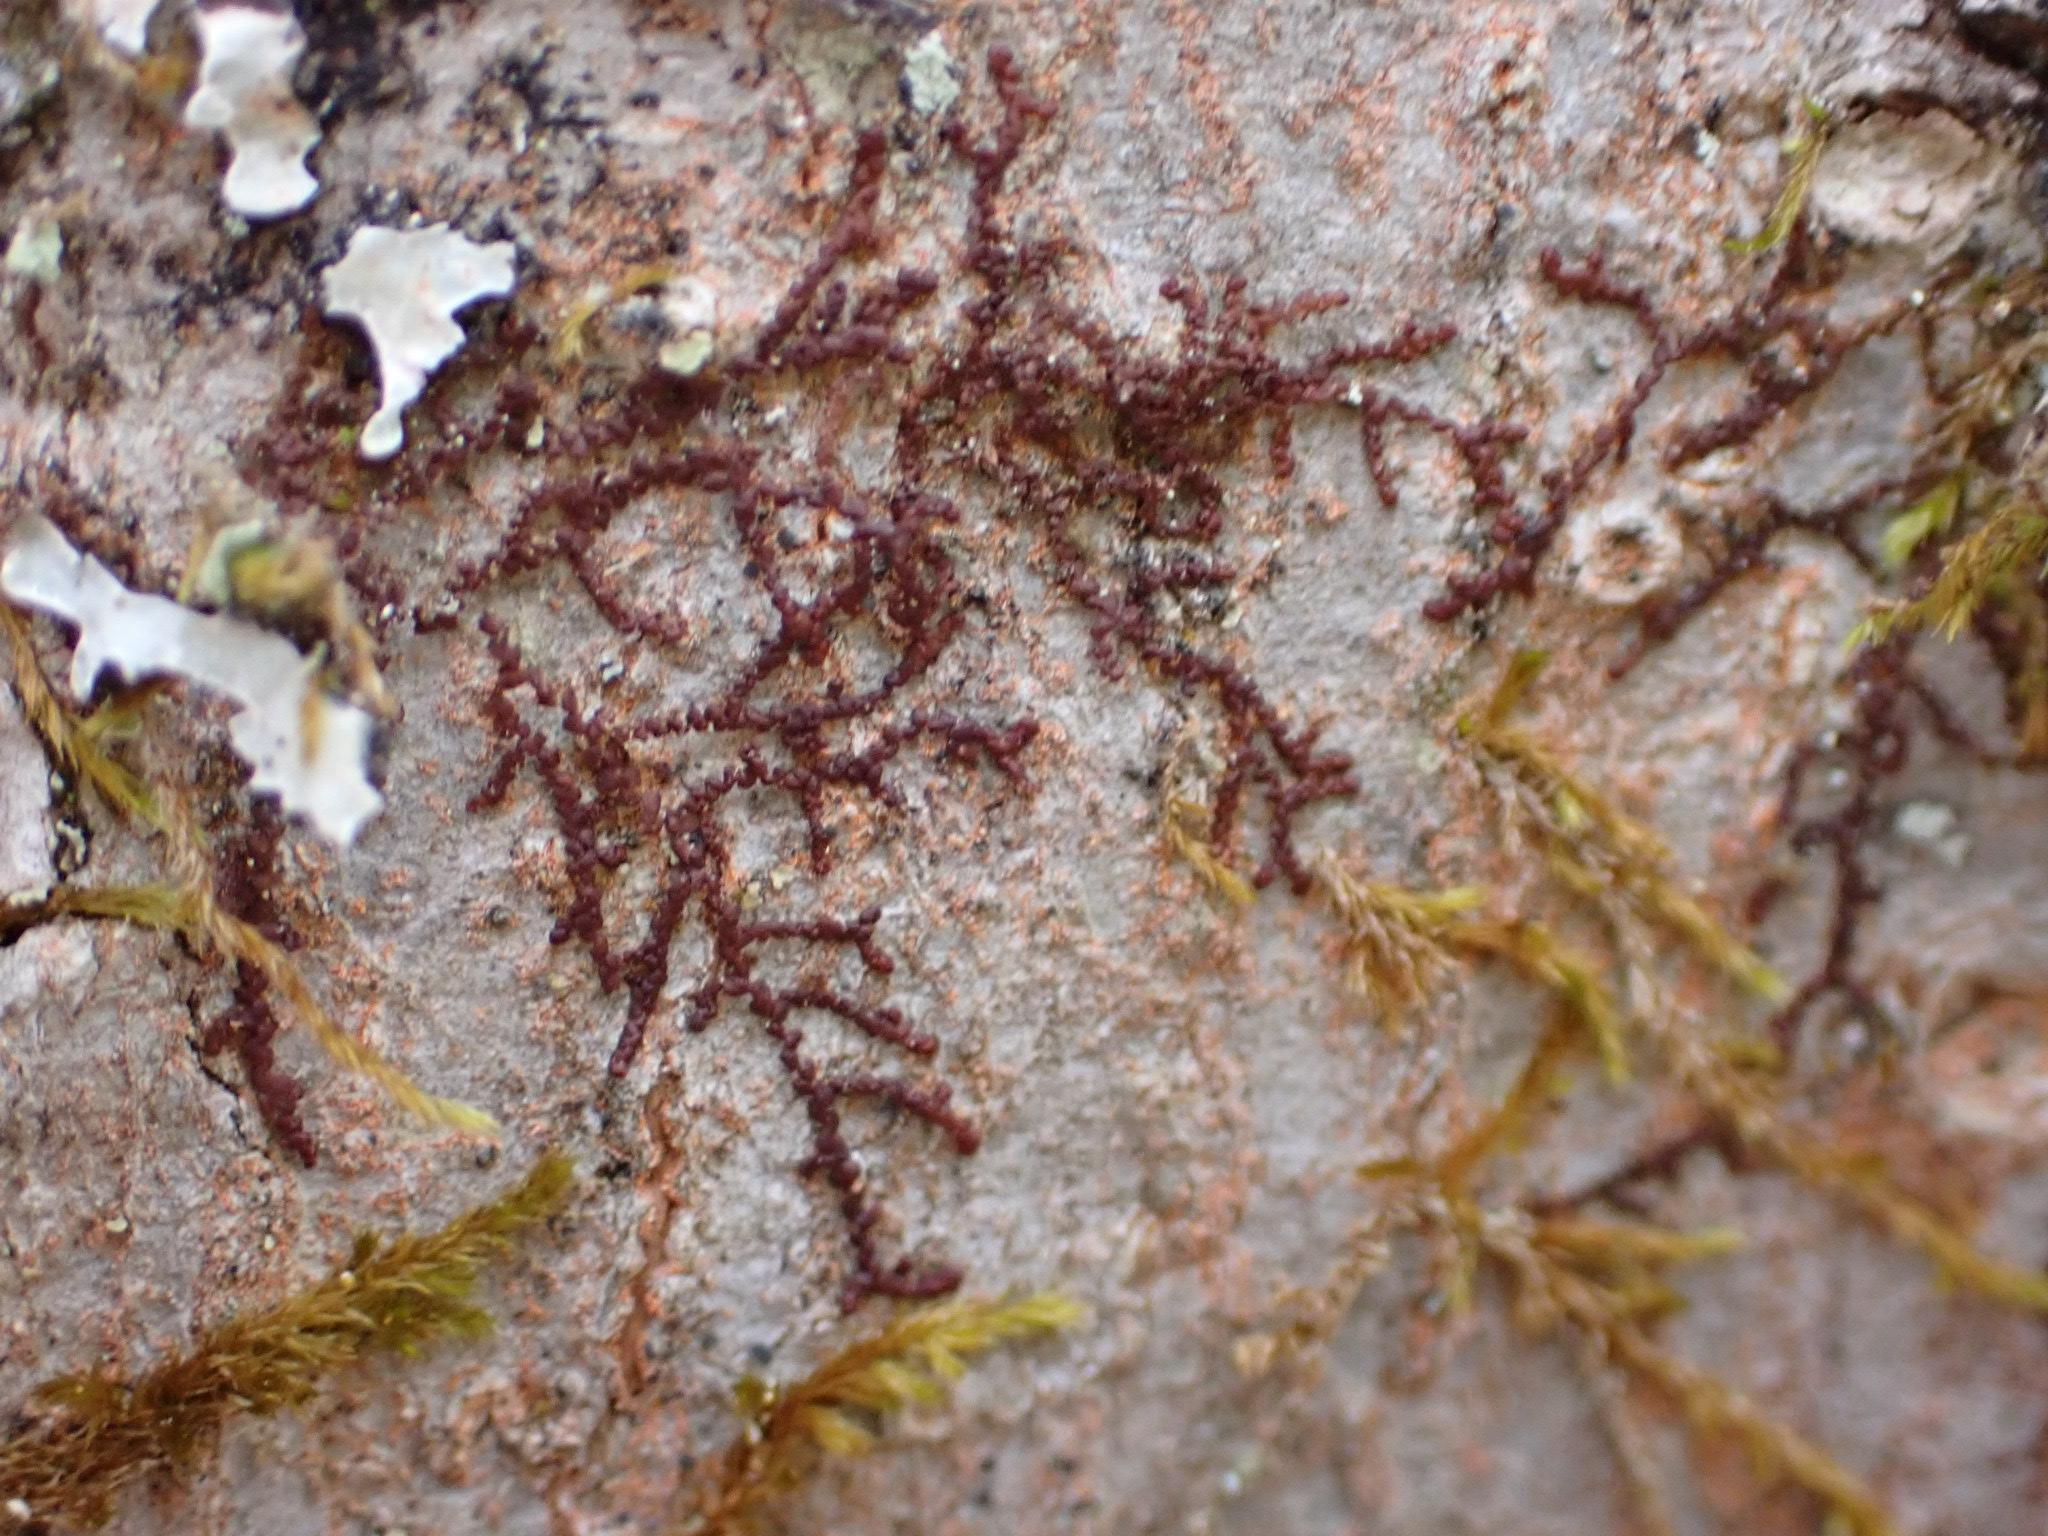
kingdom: Plantae
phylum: Marchantiophyta
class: Jungermanniopsida
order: Porellales
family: Frullaniaceae
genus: Frullania
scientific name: Frullania eboracensis
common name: New york scalewort
